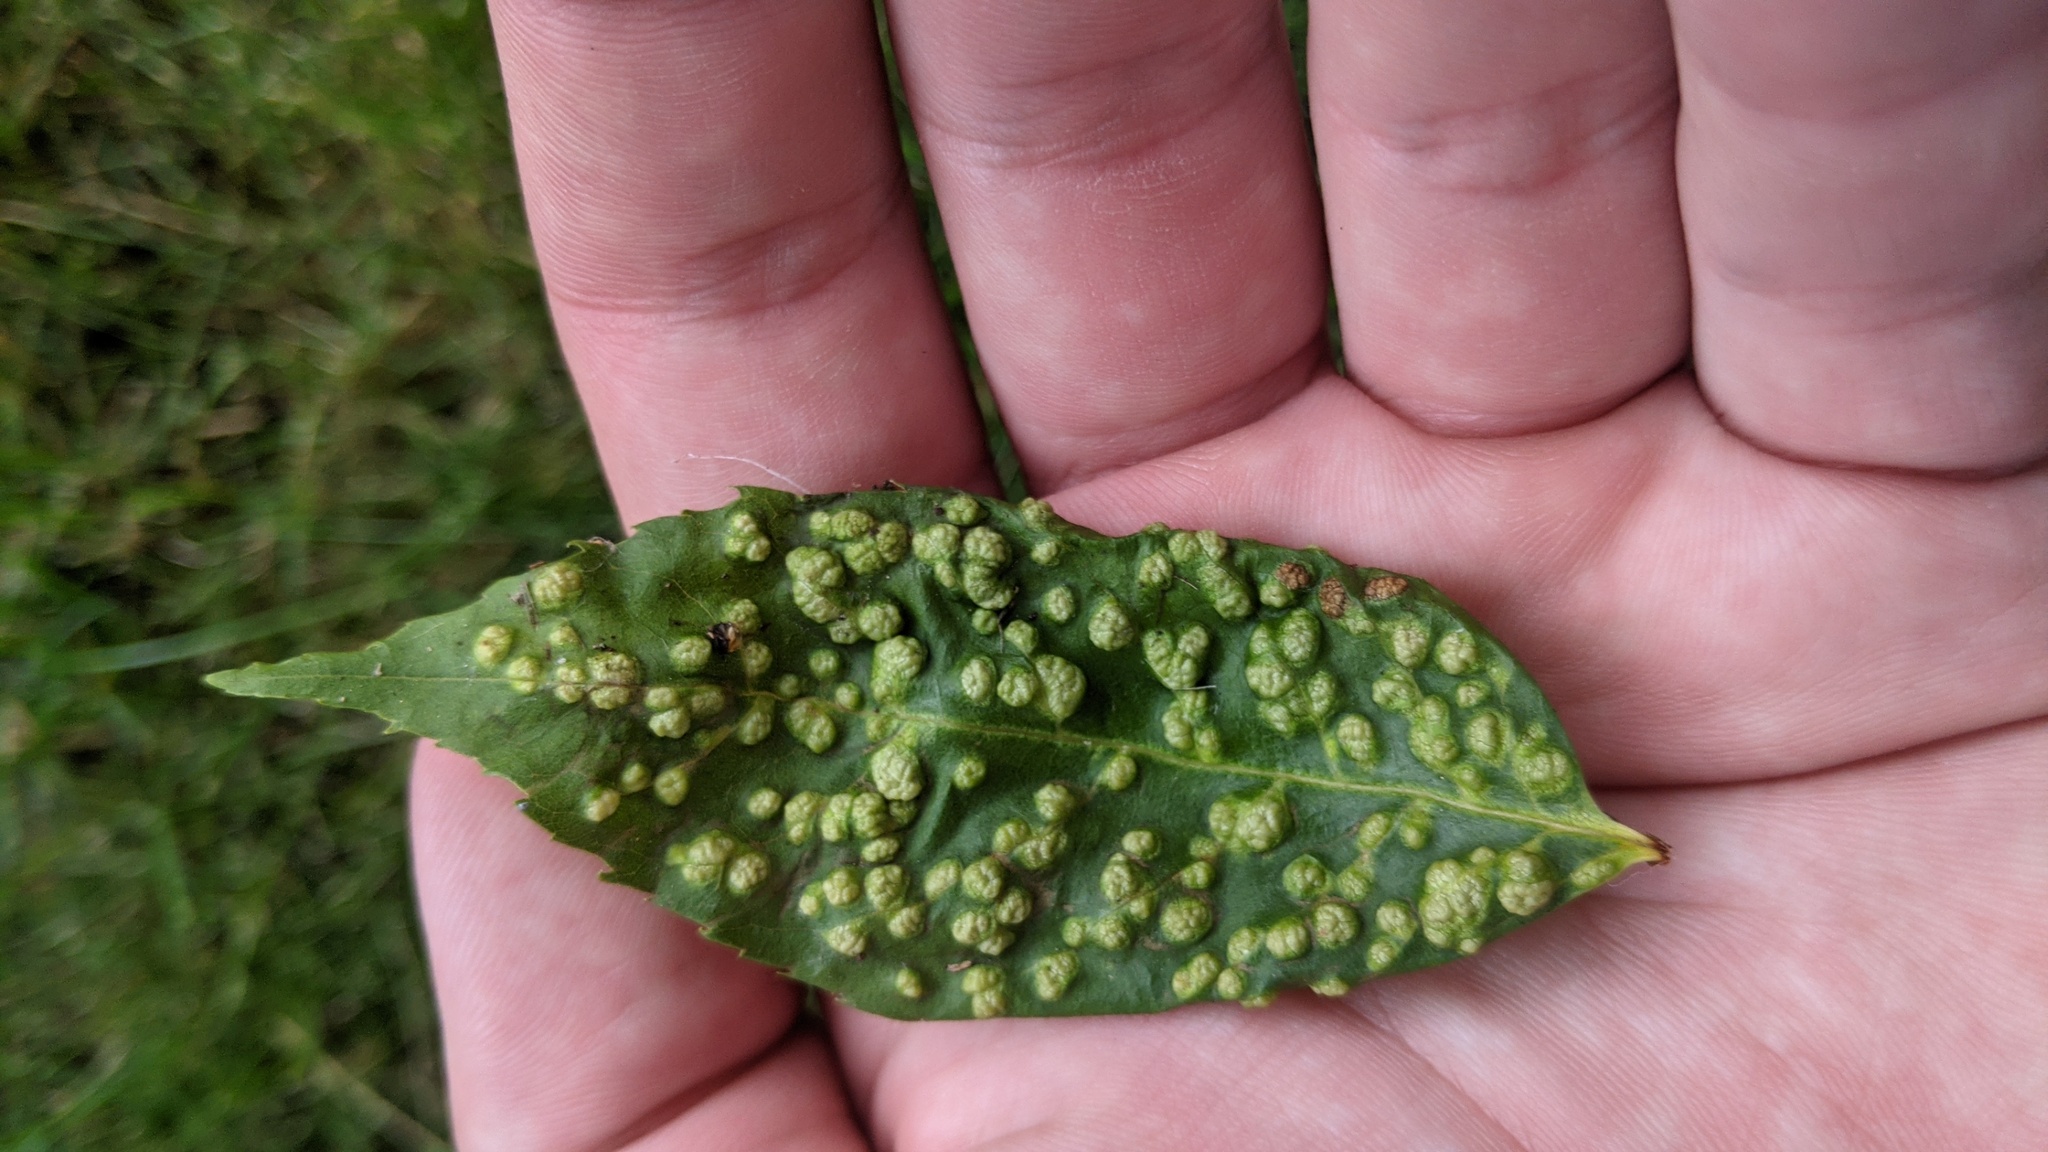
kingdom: Animalia
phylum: Arthropoda
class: Arachnida
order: Trombidiformes
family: Eriophyidae
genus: Aceria
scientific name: Aceria fraxinicola
